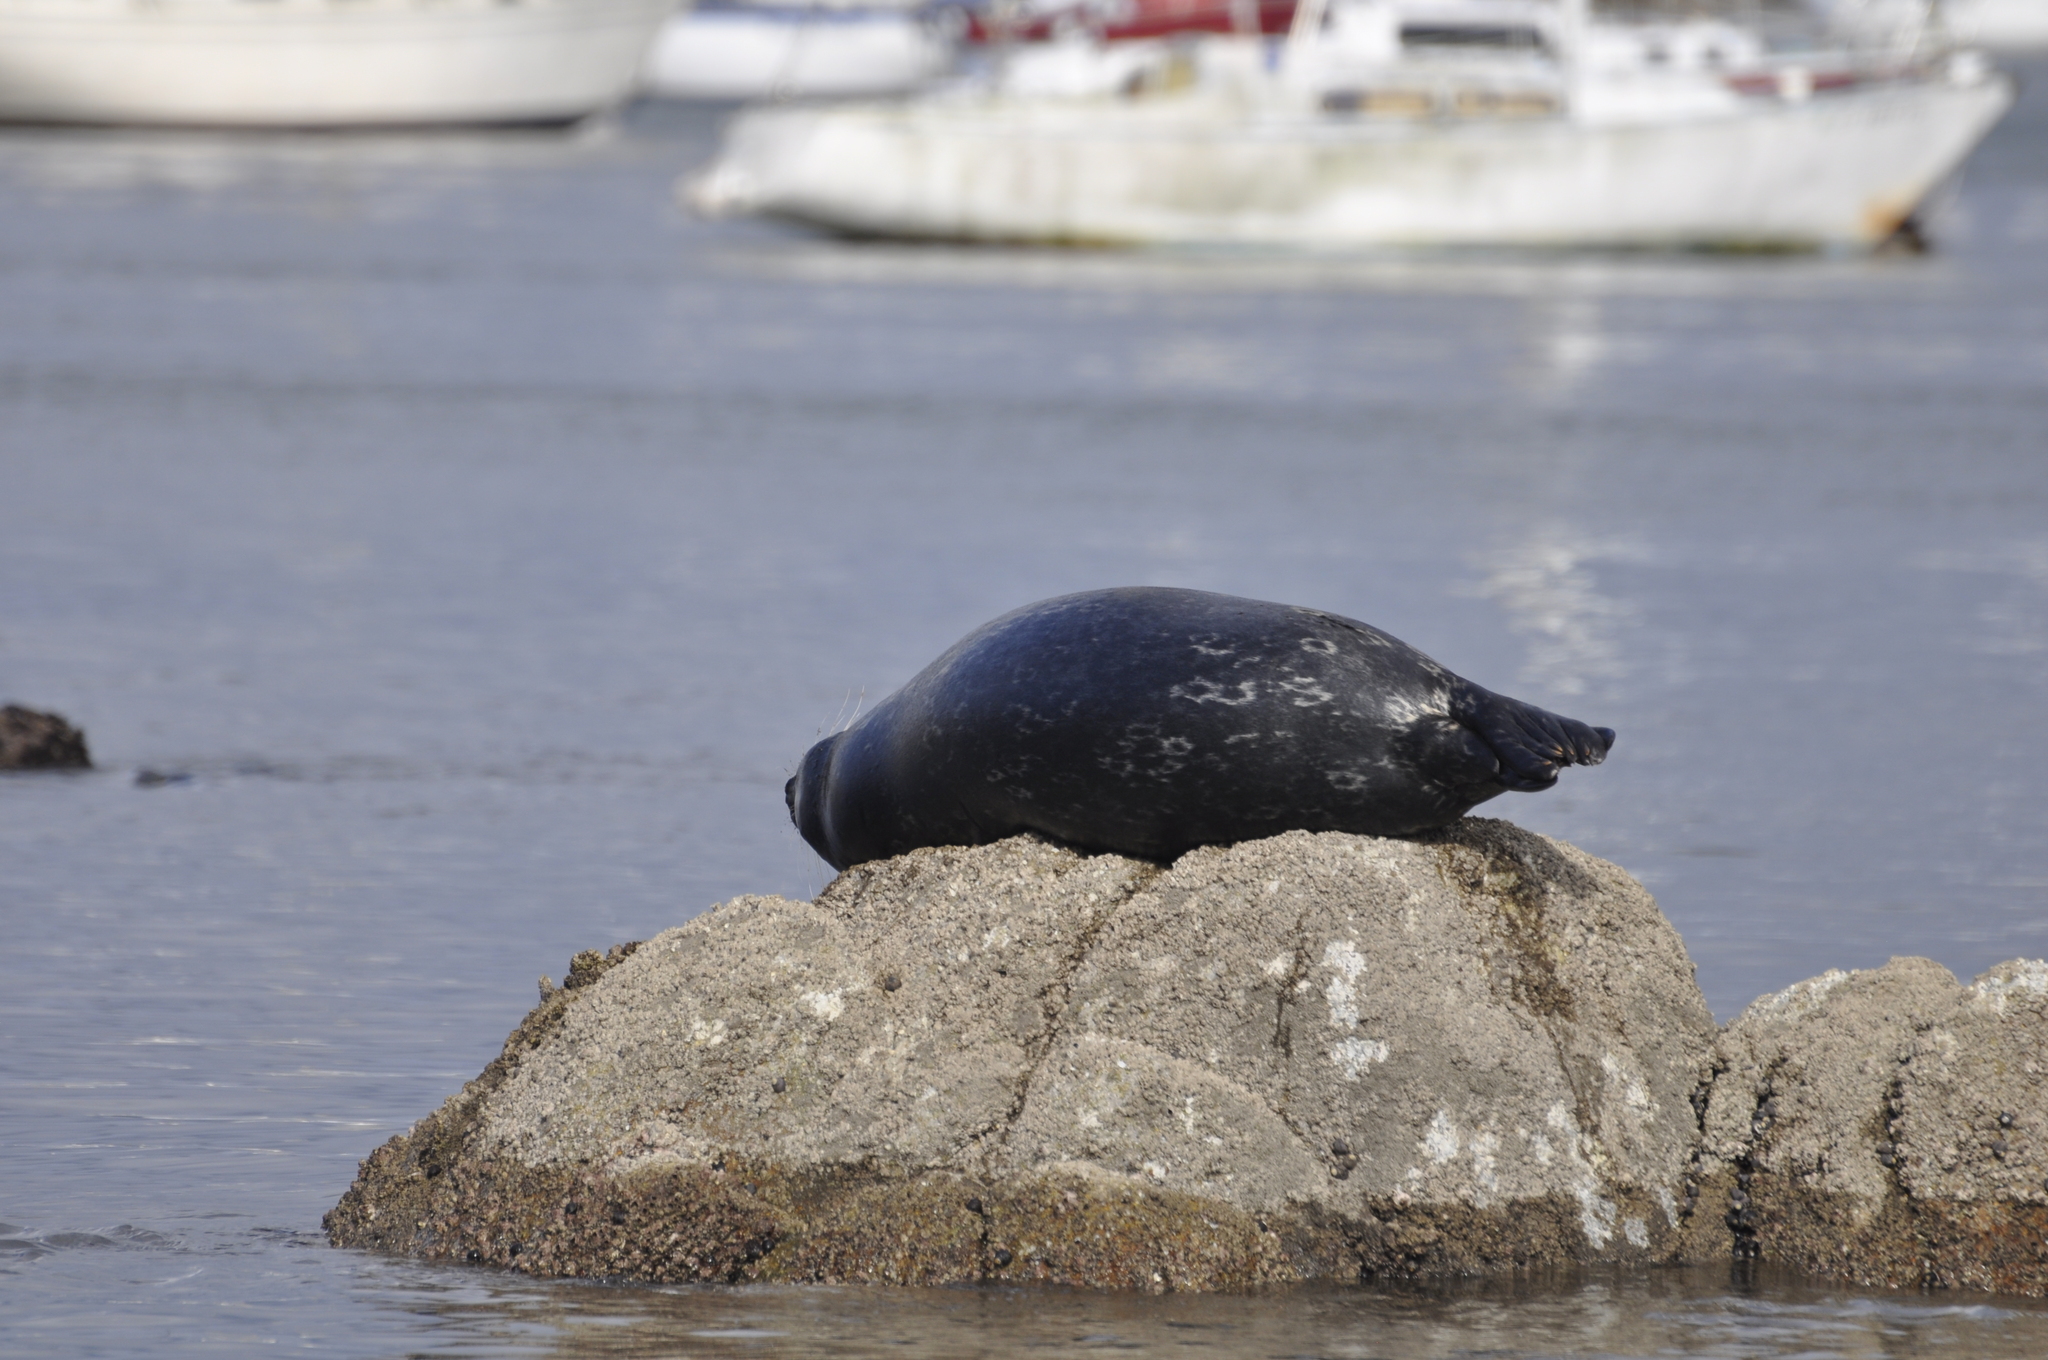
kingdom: Animalia
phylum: Chordata
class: Mammalia
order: Carnivora
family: Phocidae
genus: Phoca
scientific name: Phoca vitulina
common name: Harbor seal
